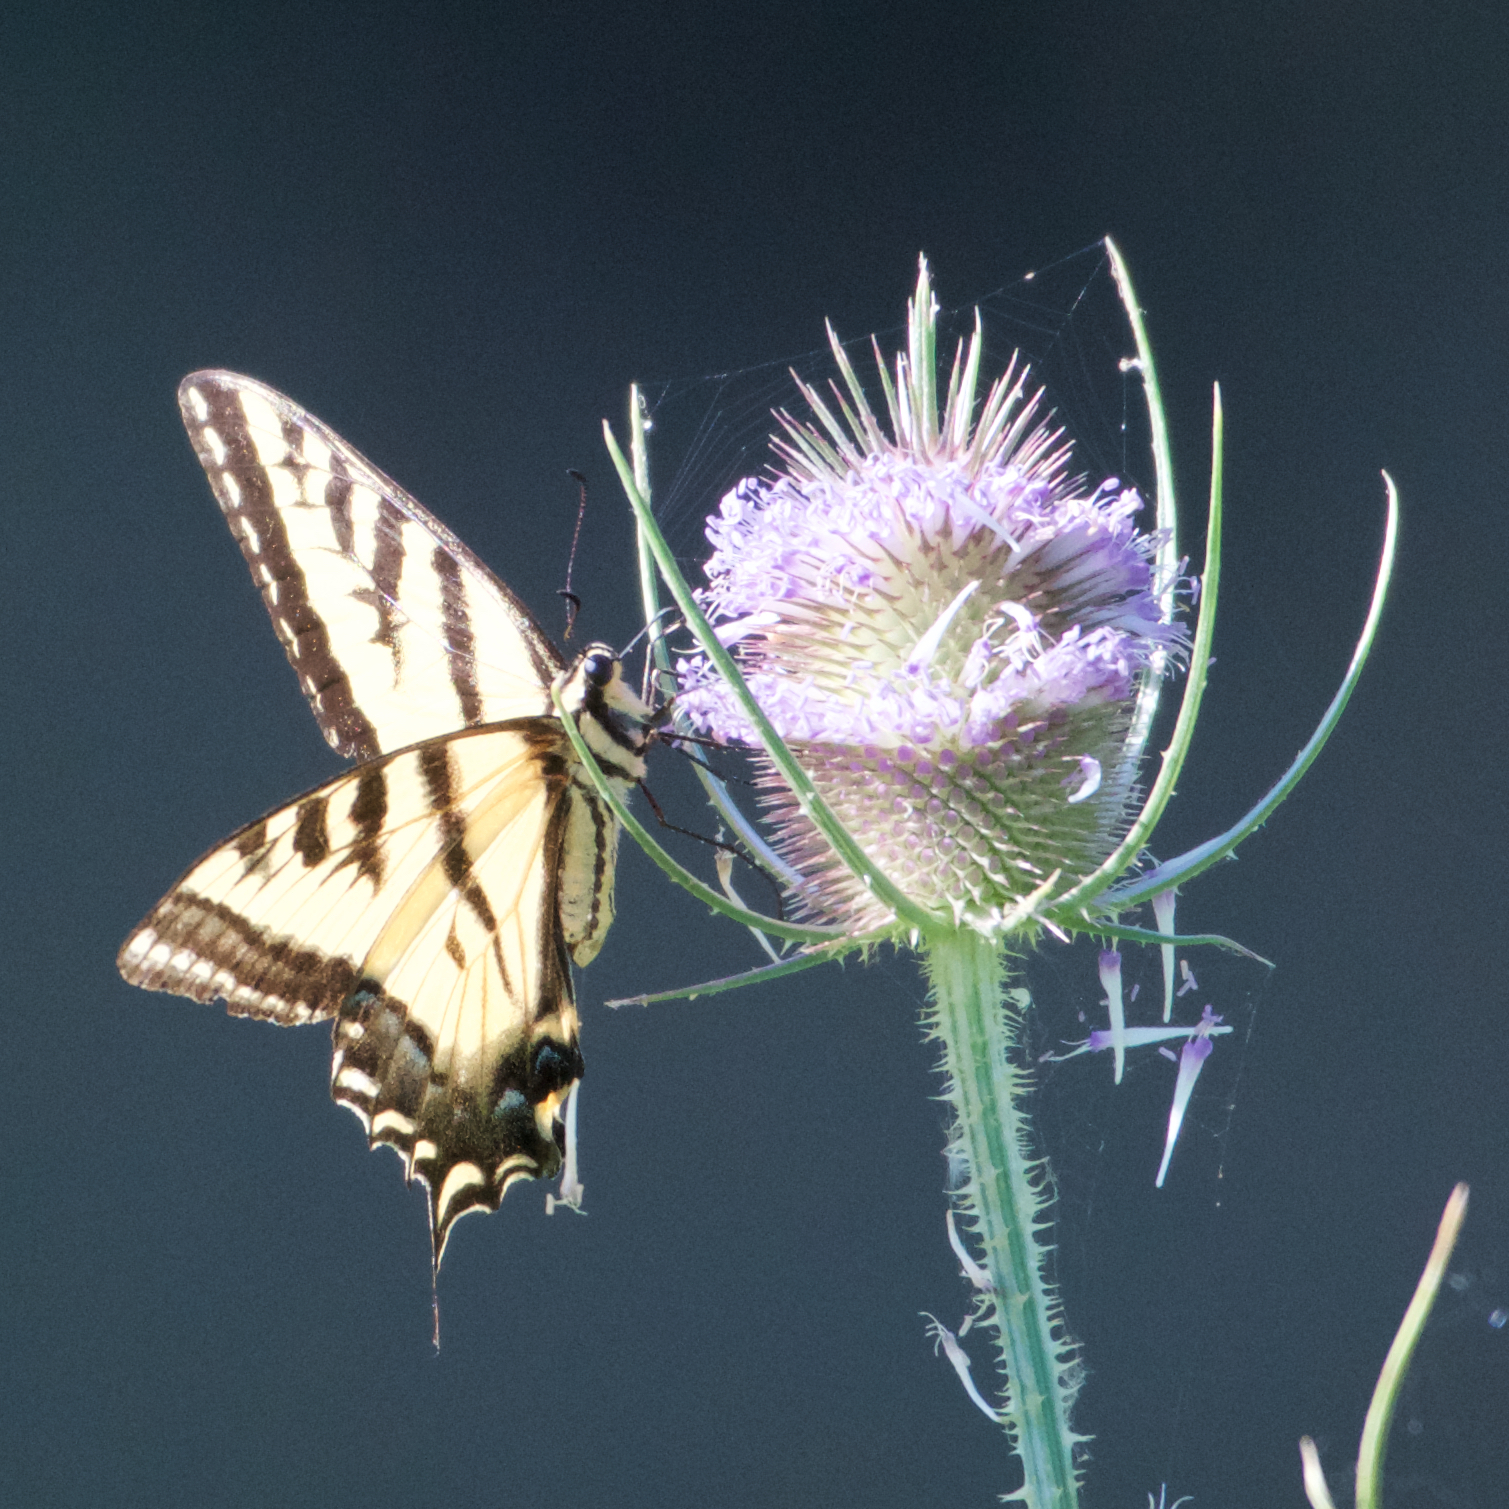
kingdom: Animalia
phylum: Arthropoda
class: Insecta
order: Lepidoptera
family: Papilionidae
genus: Papilio
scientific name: Papilio rutulus
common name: Western tiger swallowtail
